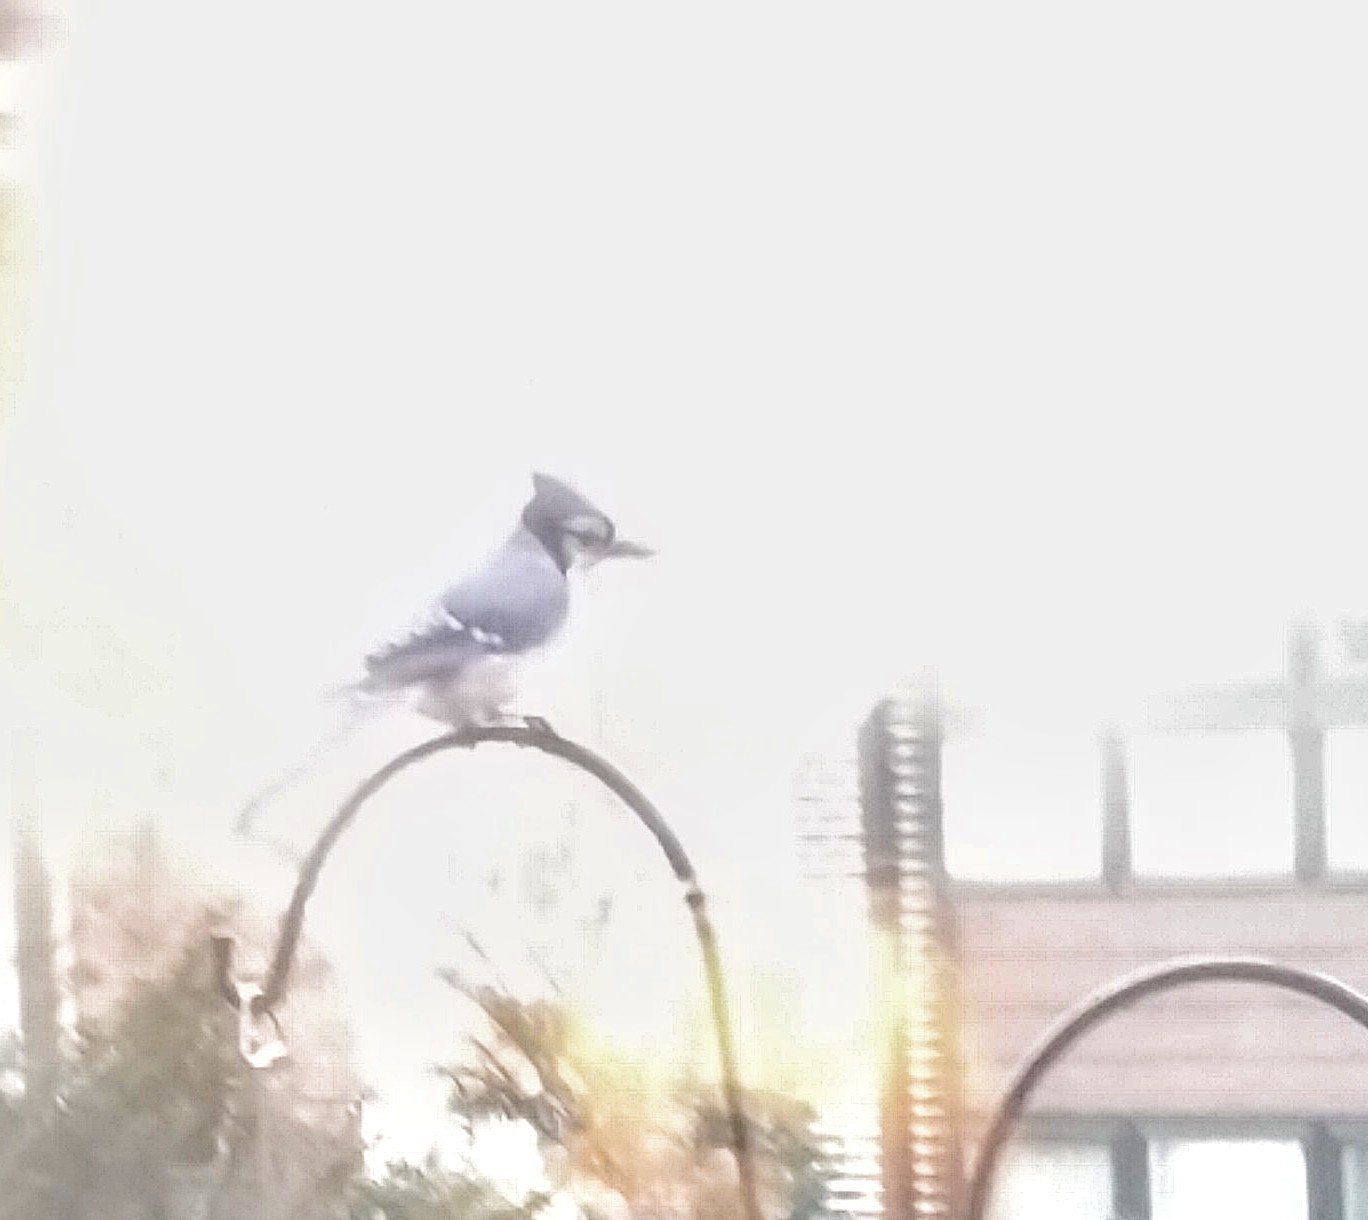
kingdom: Animalia
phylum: Chordata
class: Aves
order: Passeriformes
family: Corvidae
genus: Cyanocitta
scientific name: Cyanocitta cristata
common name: Blue jay
